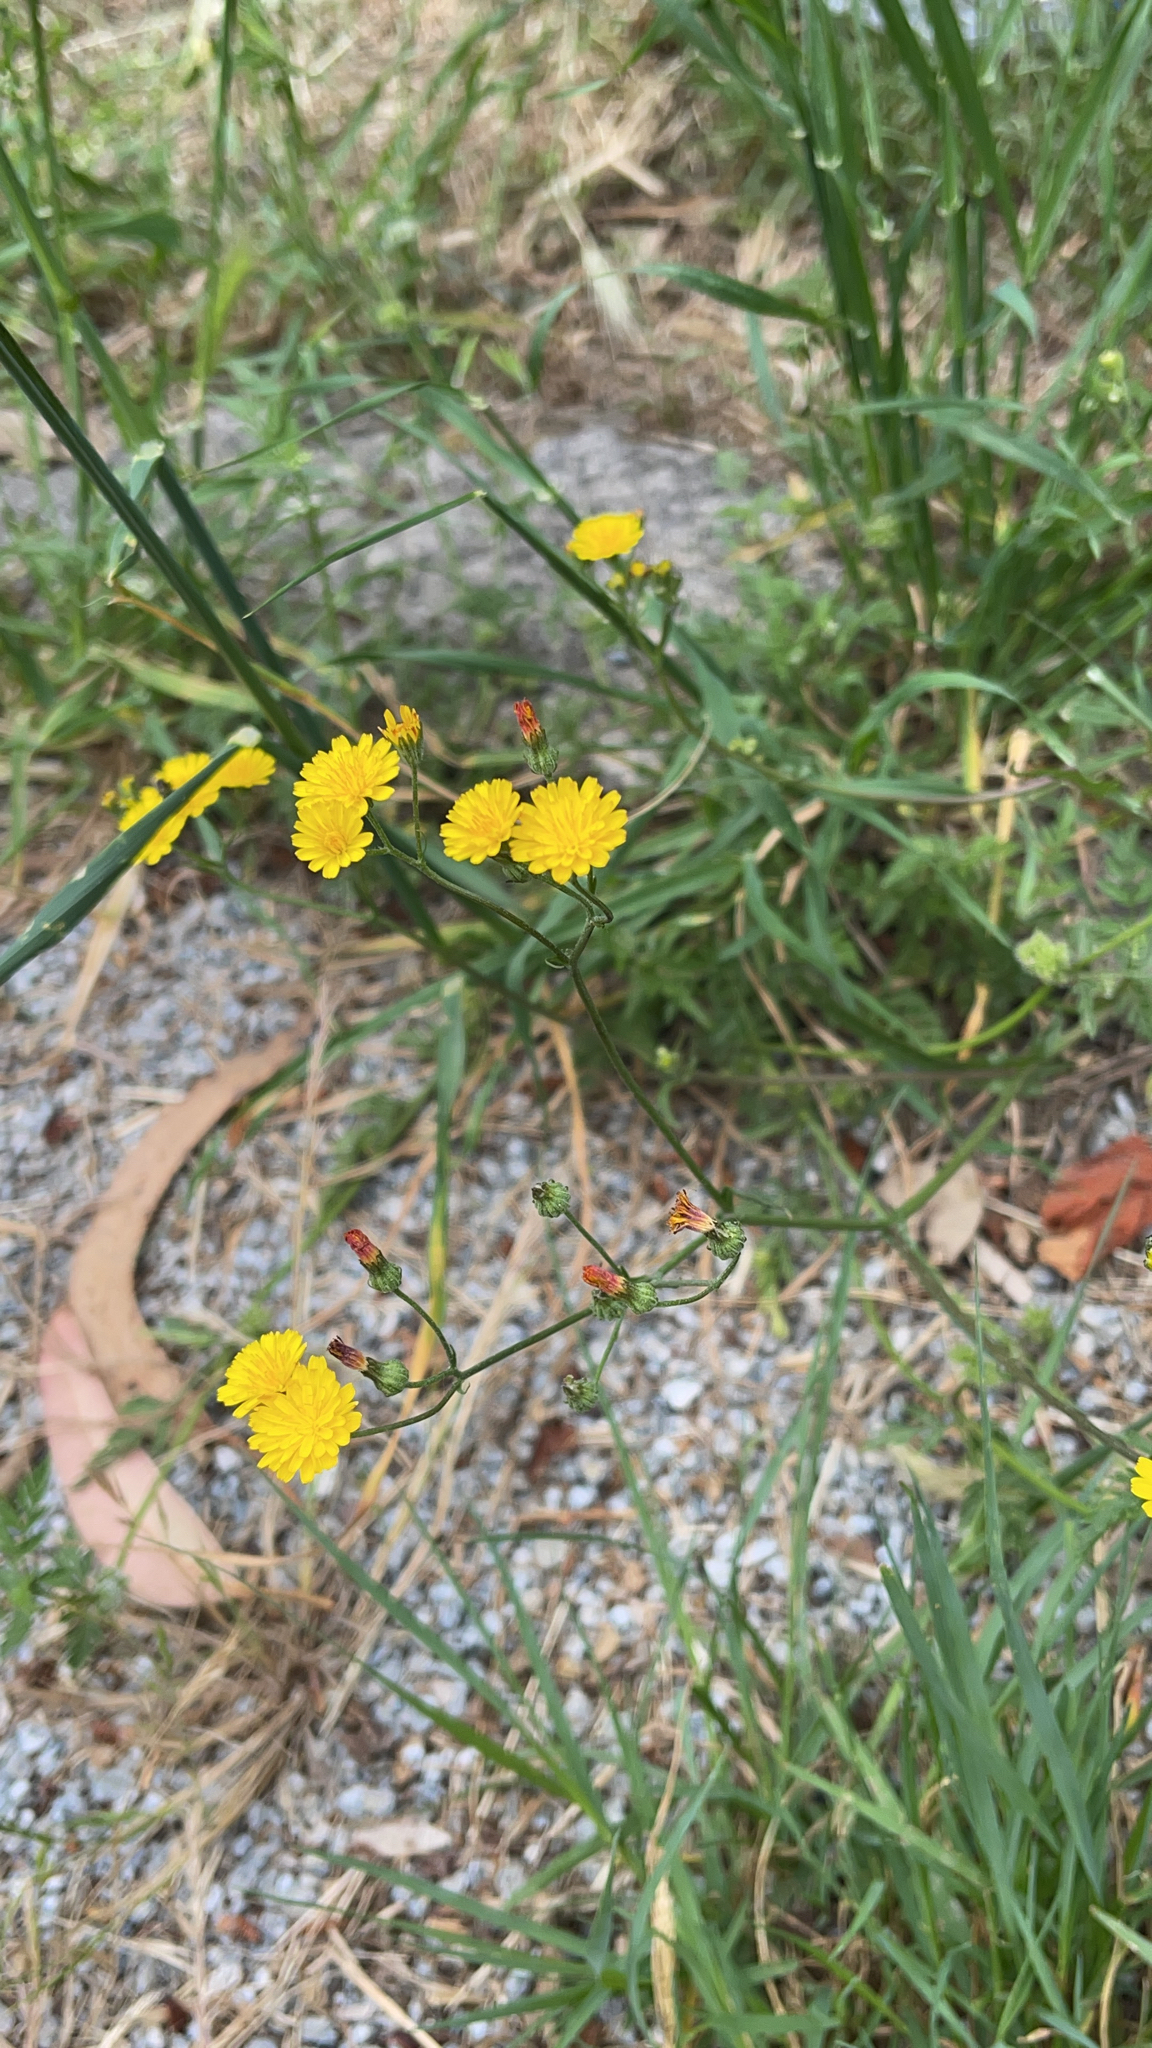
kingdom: Plantae
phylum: Tracheophyta
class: Magnoliopsida
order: Asterales
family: Asteraceae
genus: Crepis
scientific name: Crepis capillaris
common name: Smooth hawksbeard
